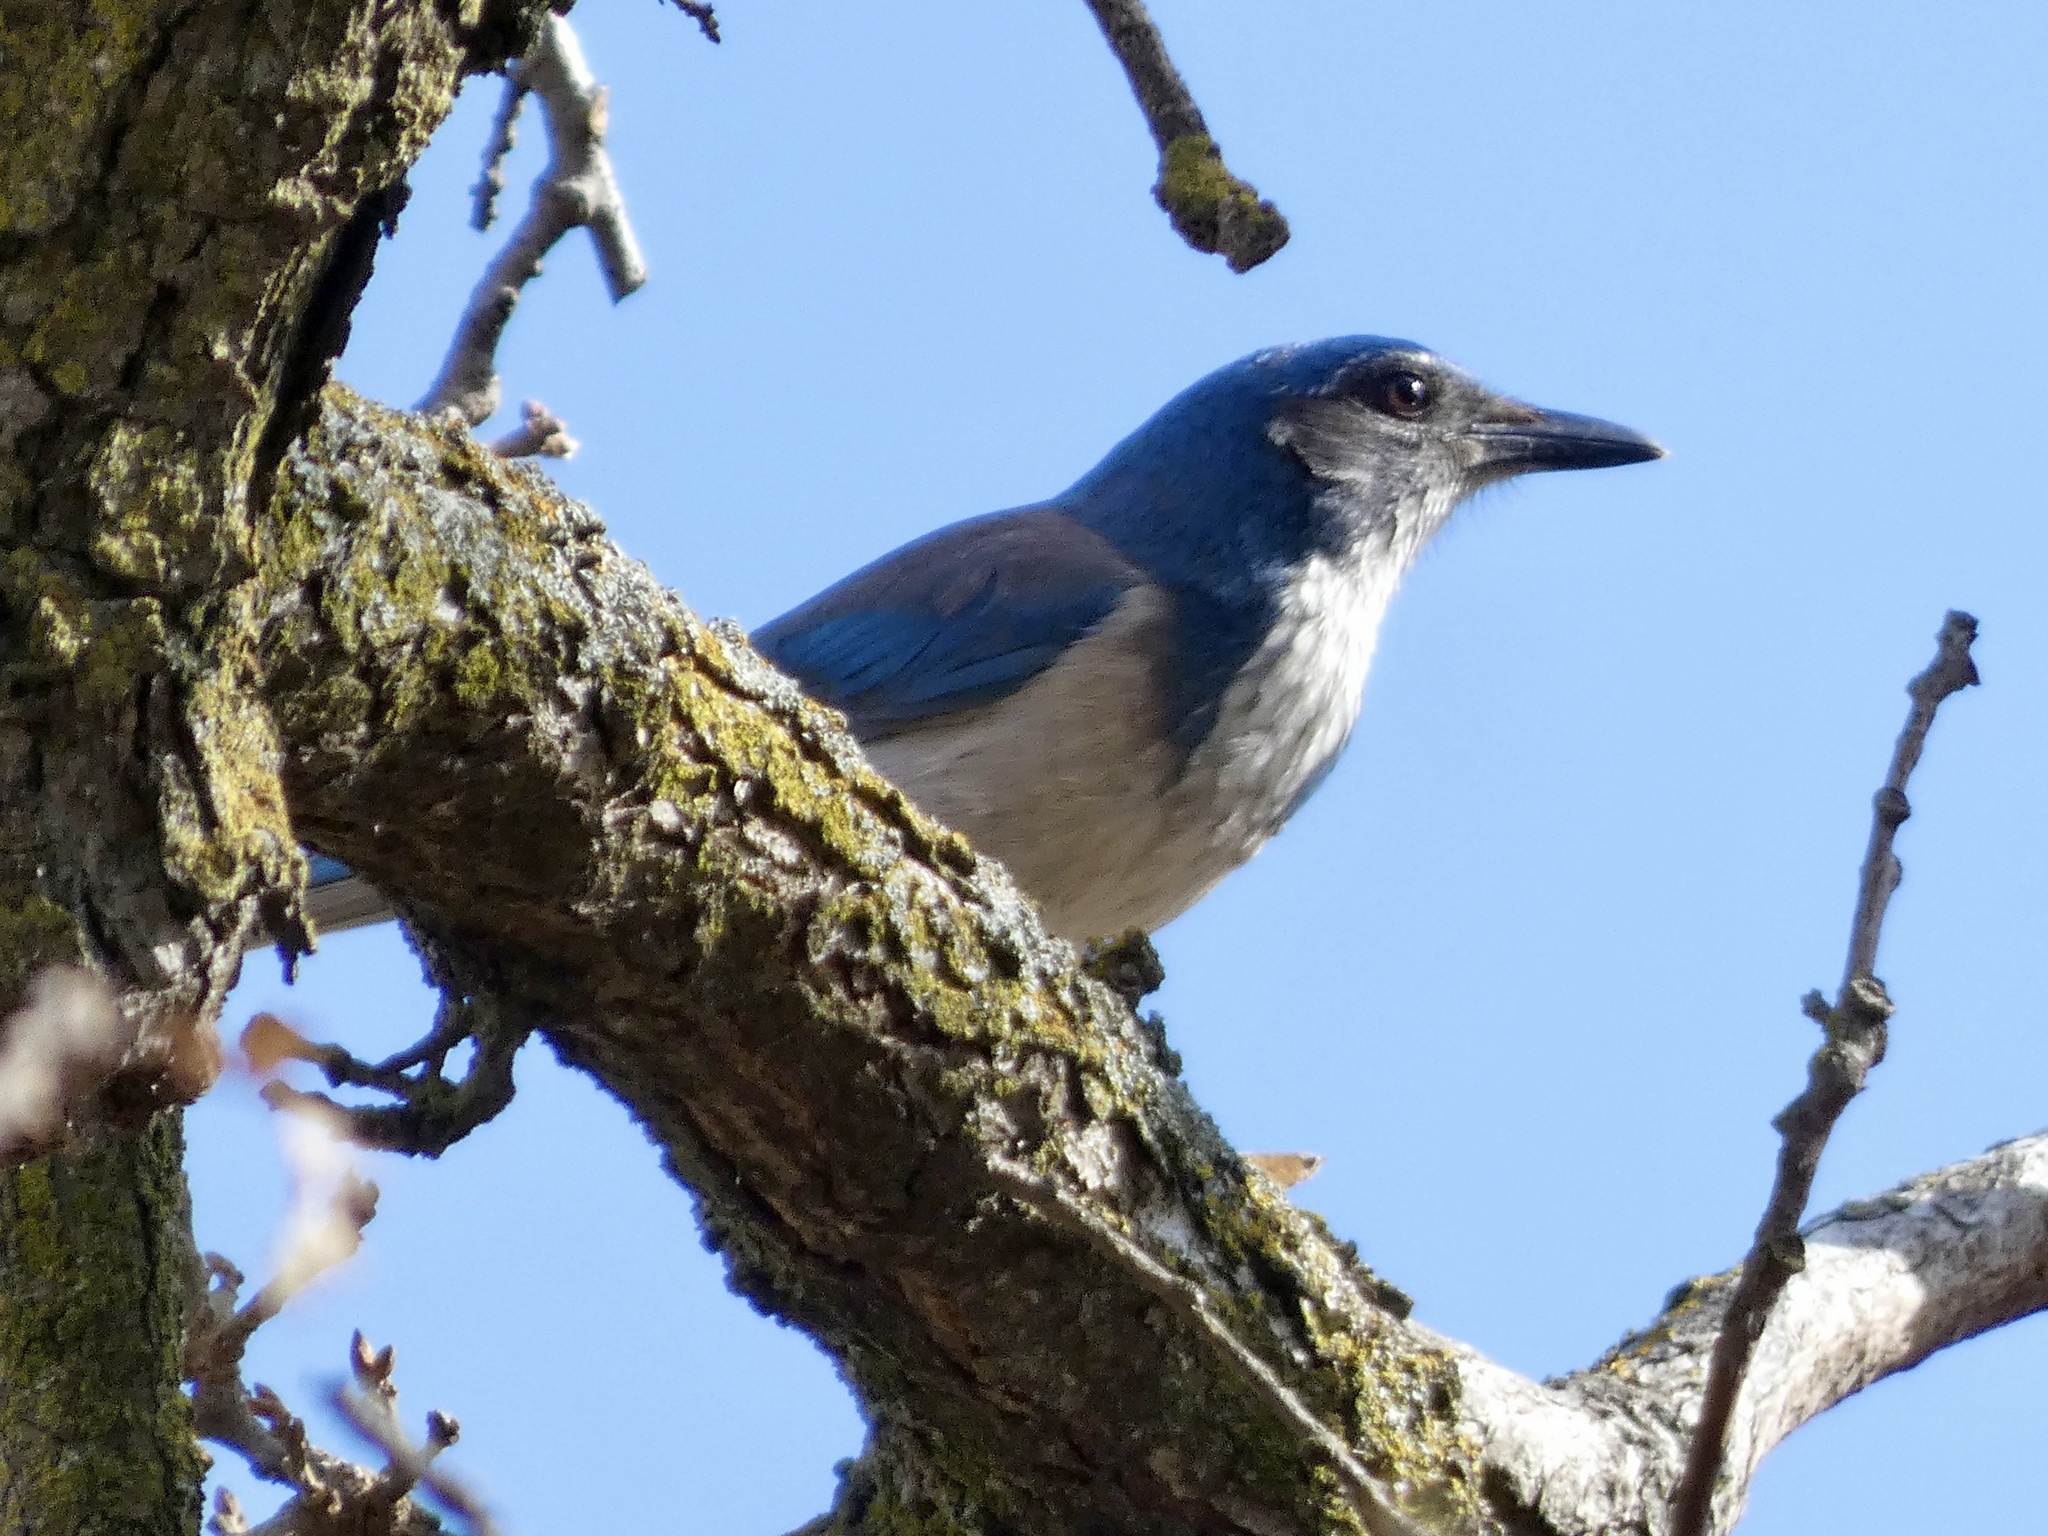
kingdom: Animalia
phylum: Chordata
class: Aves
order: Passeriformes
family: Corvidae
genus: Aphelocoma
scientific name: Aphelocoma californica
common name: California scrub-jay
